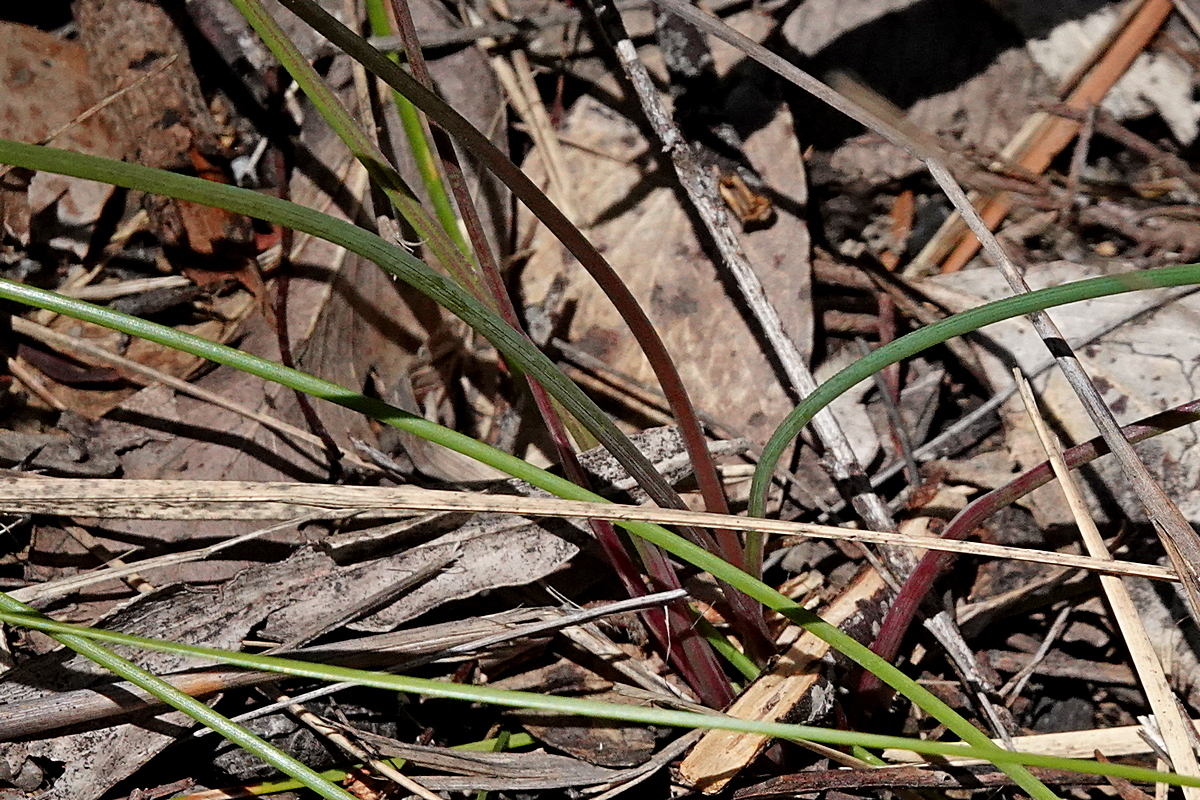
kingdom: Plantae
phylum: Tracheophyta
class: Liliopsida
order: Asparagales
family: Asparagaceae
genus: Thysanotus
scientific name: Thysanotus tuberosus
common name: Common fringed-lily
